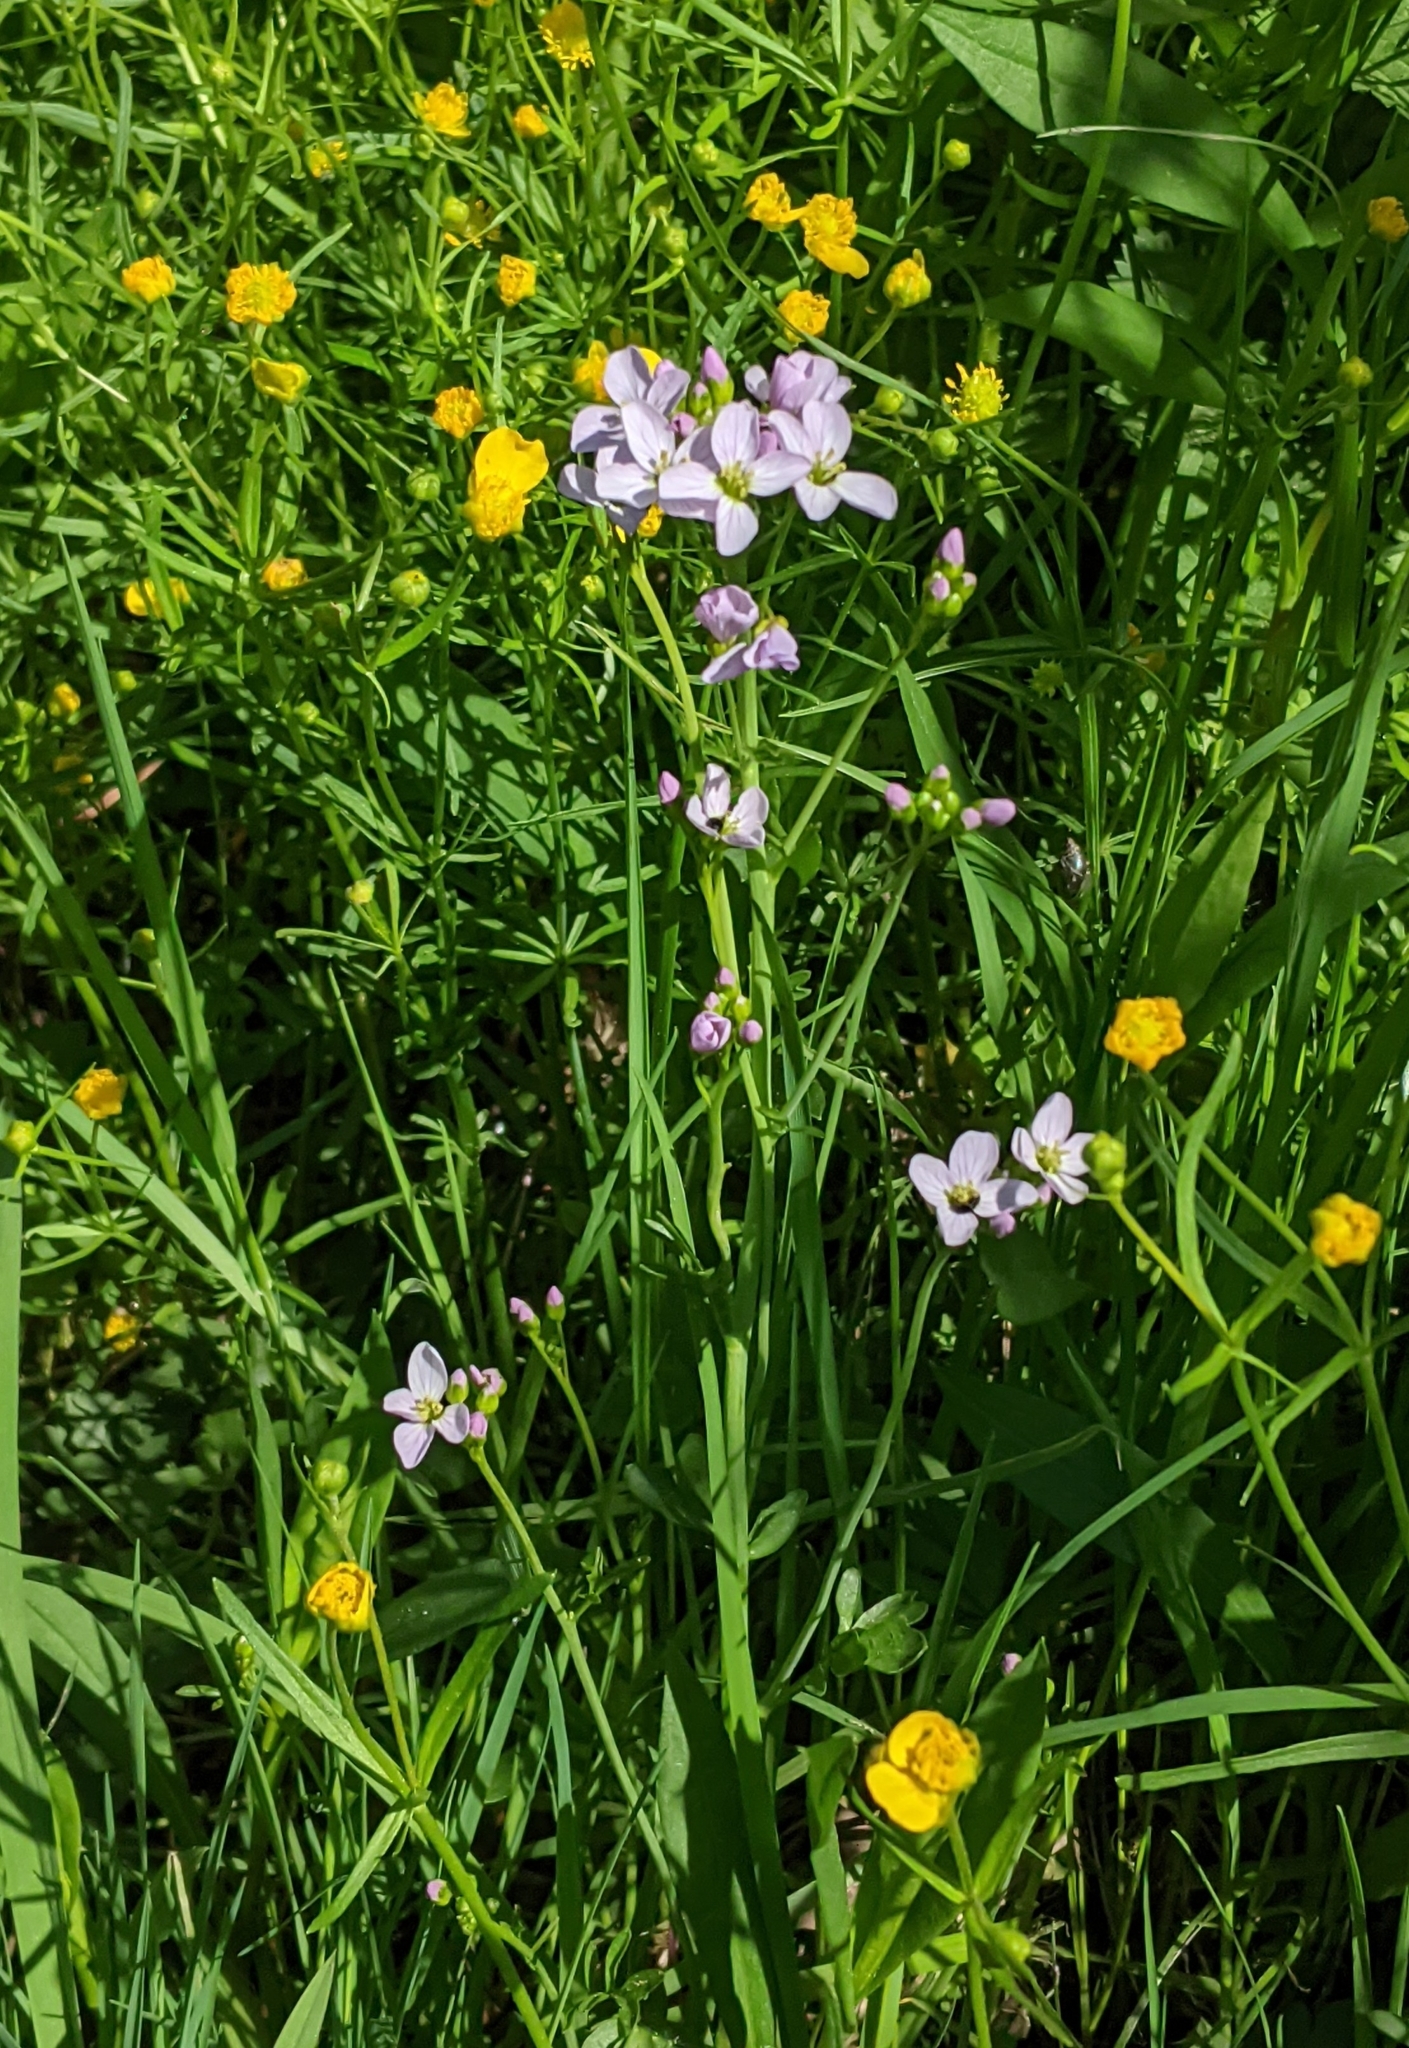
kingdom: Plantae
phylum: Tracheophyta
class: Magnoliopsida
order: Brassicales
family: Brassicaceae
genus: Cardamine
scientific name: Cardamine dentata
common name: Toothed bittercress
